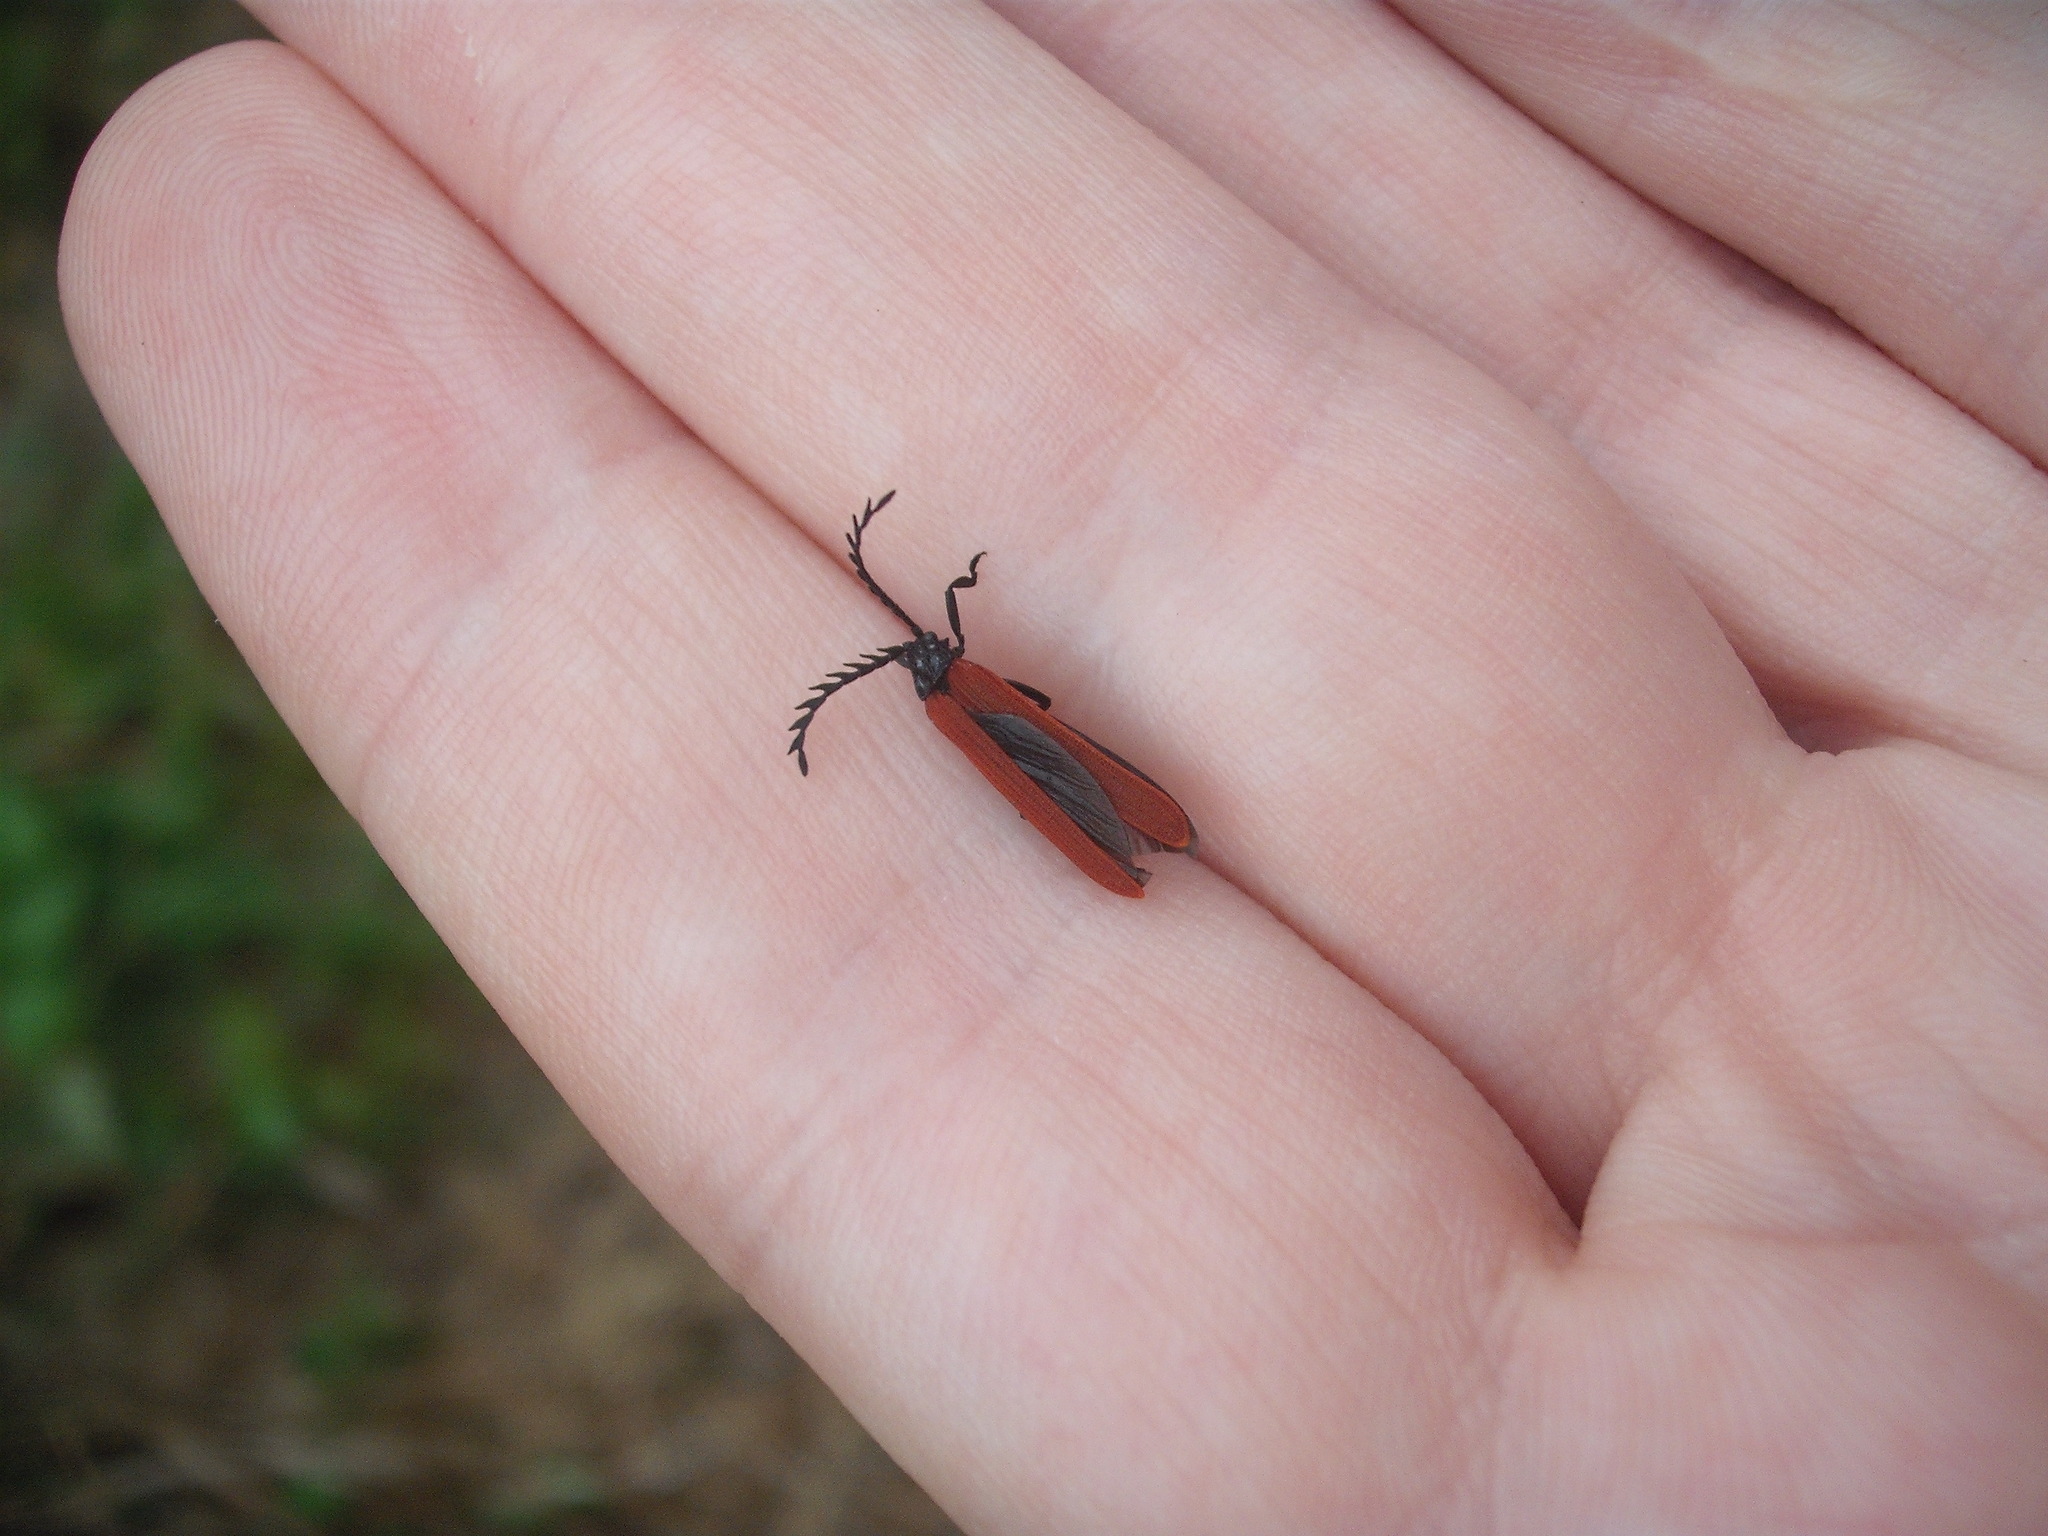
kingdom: Animalia
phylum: Arthropoda
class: Insecta
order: Coleoptera
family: Lycidae
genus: Porrostoma
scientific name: Porrostoma rufipenne
